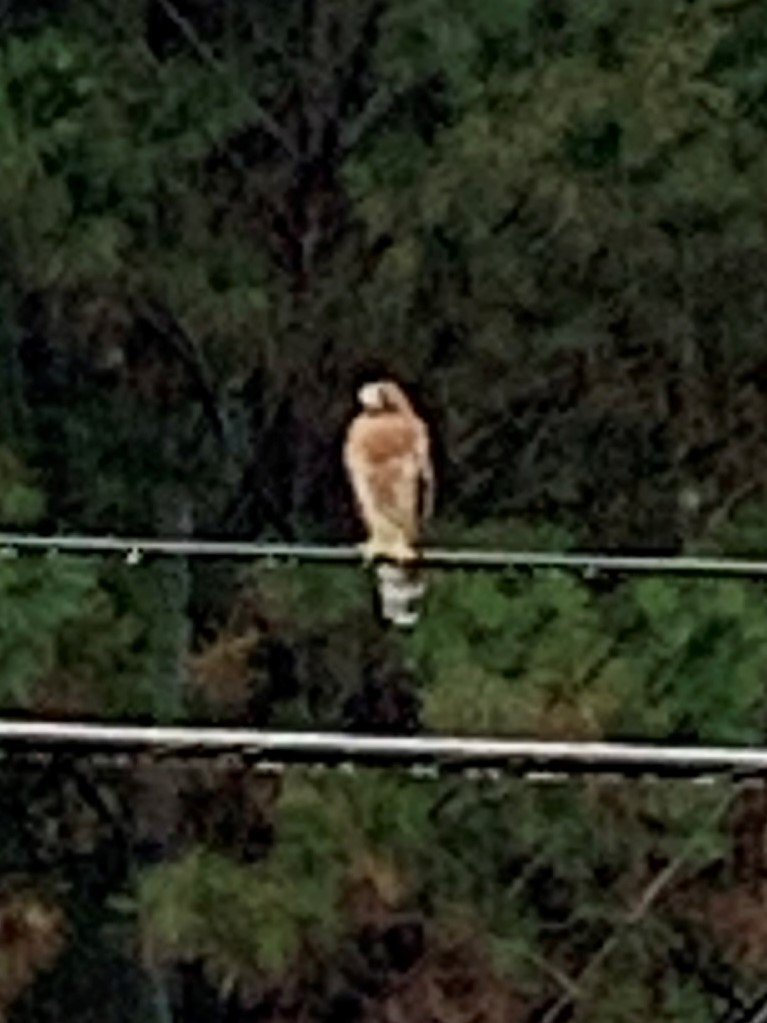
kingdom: Animalia
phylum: Chordata
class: Aves
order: Accipitriformes
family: Accipitridae
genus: Buteo
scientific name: Buteo lineatus
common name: Red-shouldered hawk
